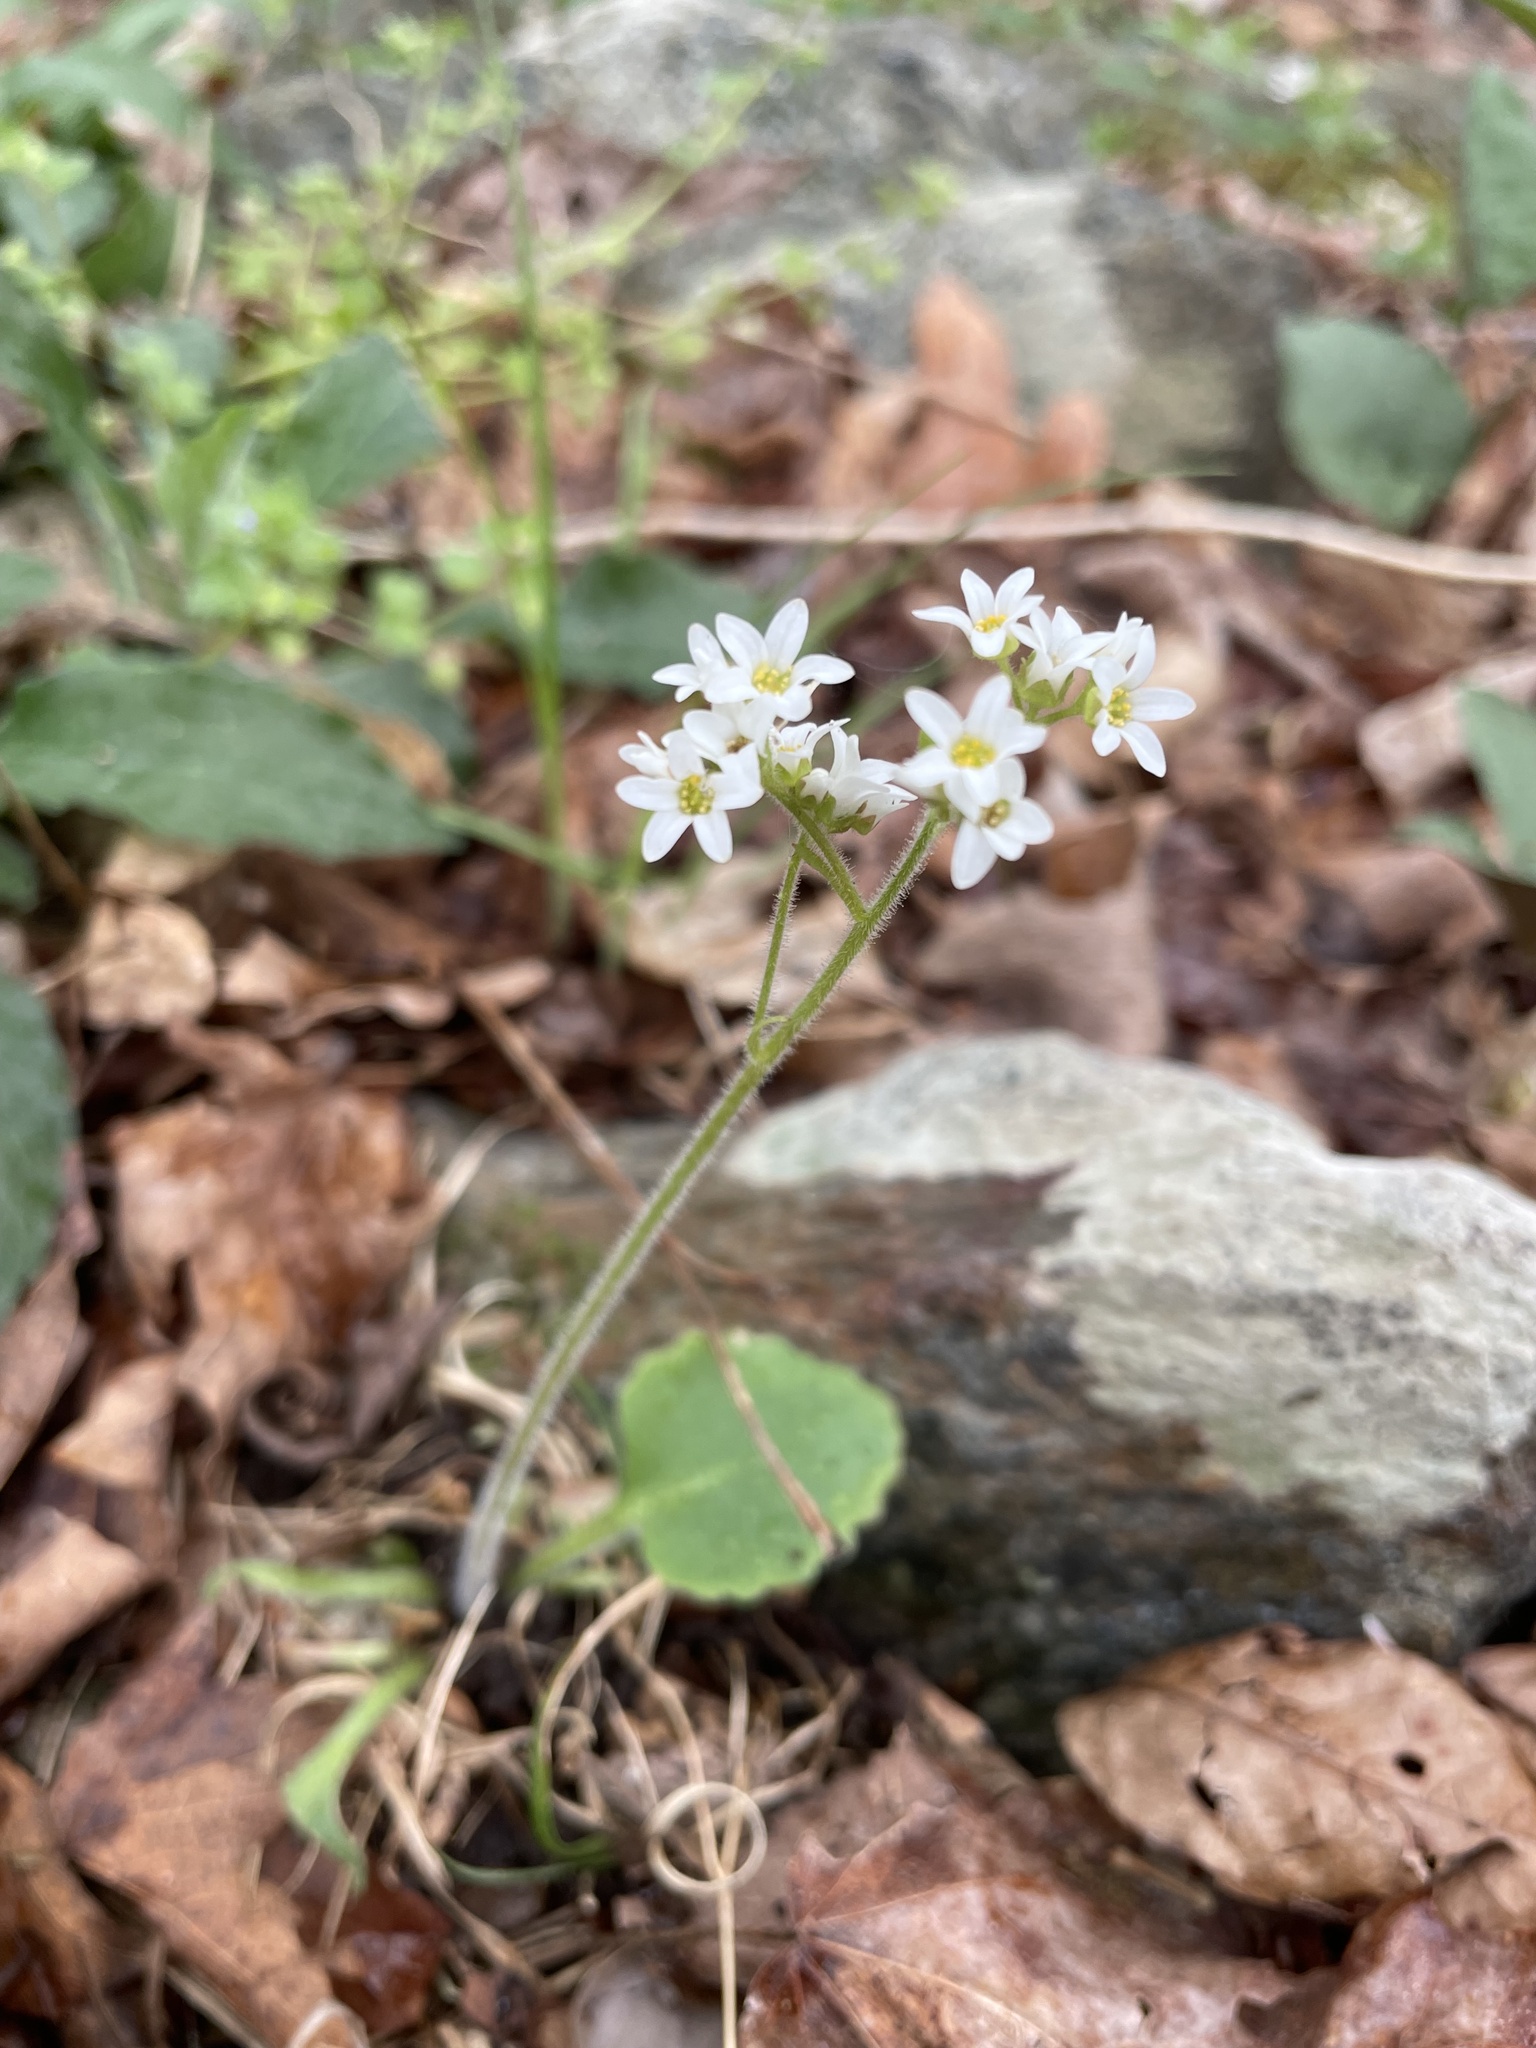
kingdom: Plantae
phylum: Tracheophyta
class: Magnoliopsida
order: Saxifragales
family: Saxifragaceae
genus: Micranthes
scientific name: Micranthes virginiensis
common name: Early saxifrage
